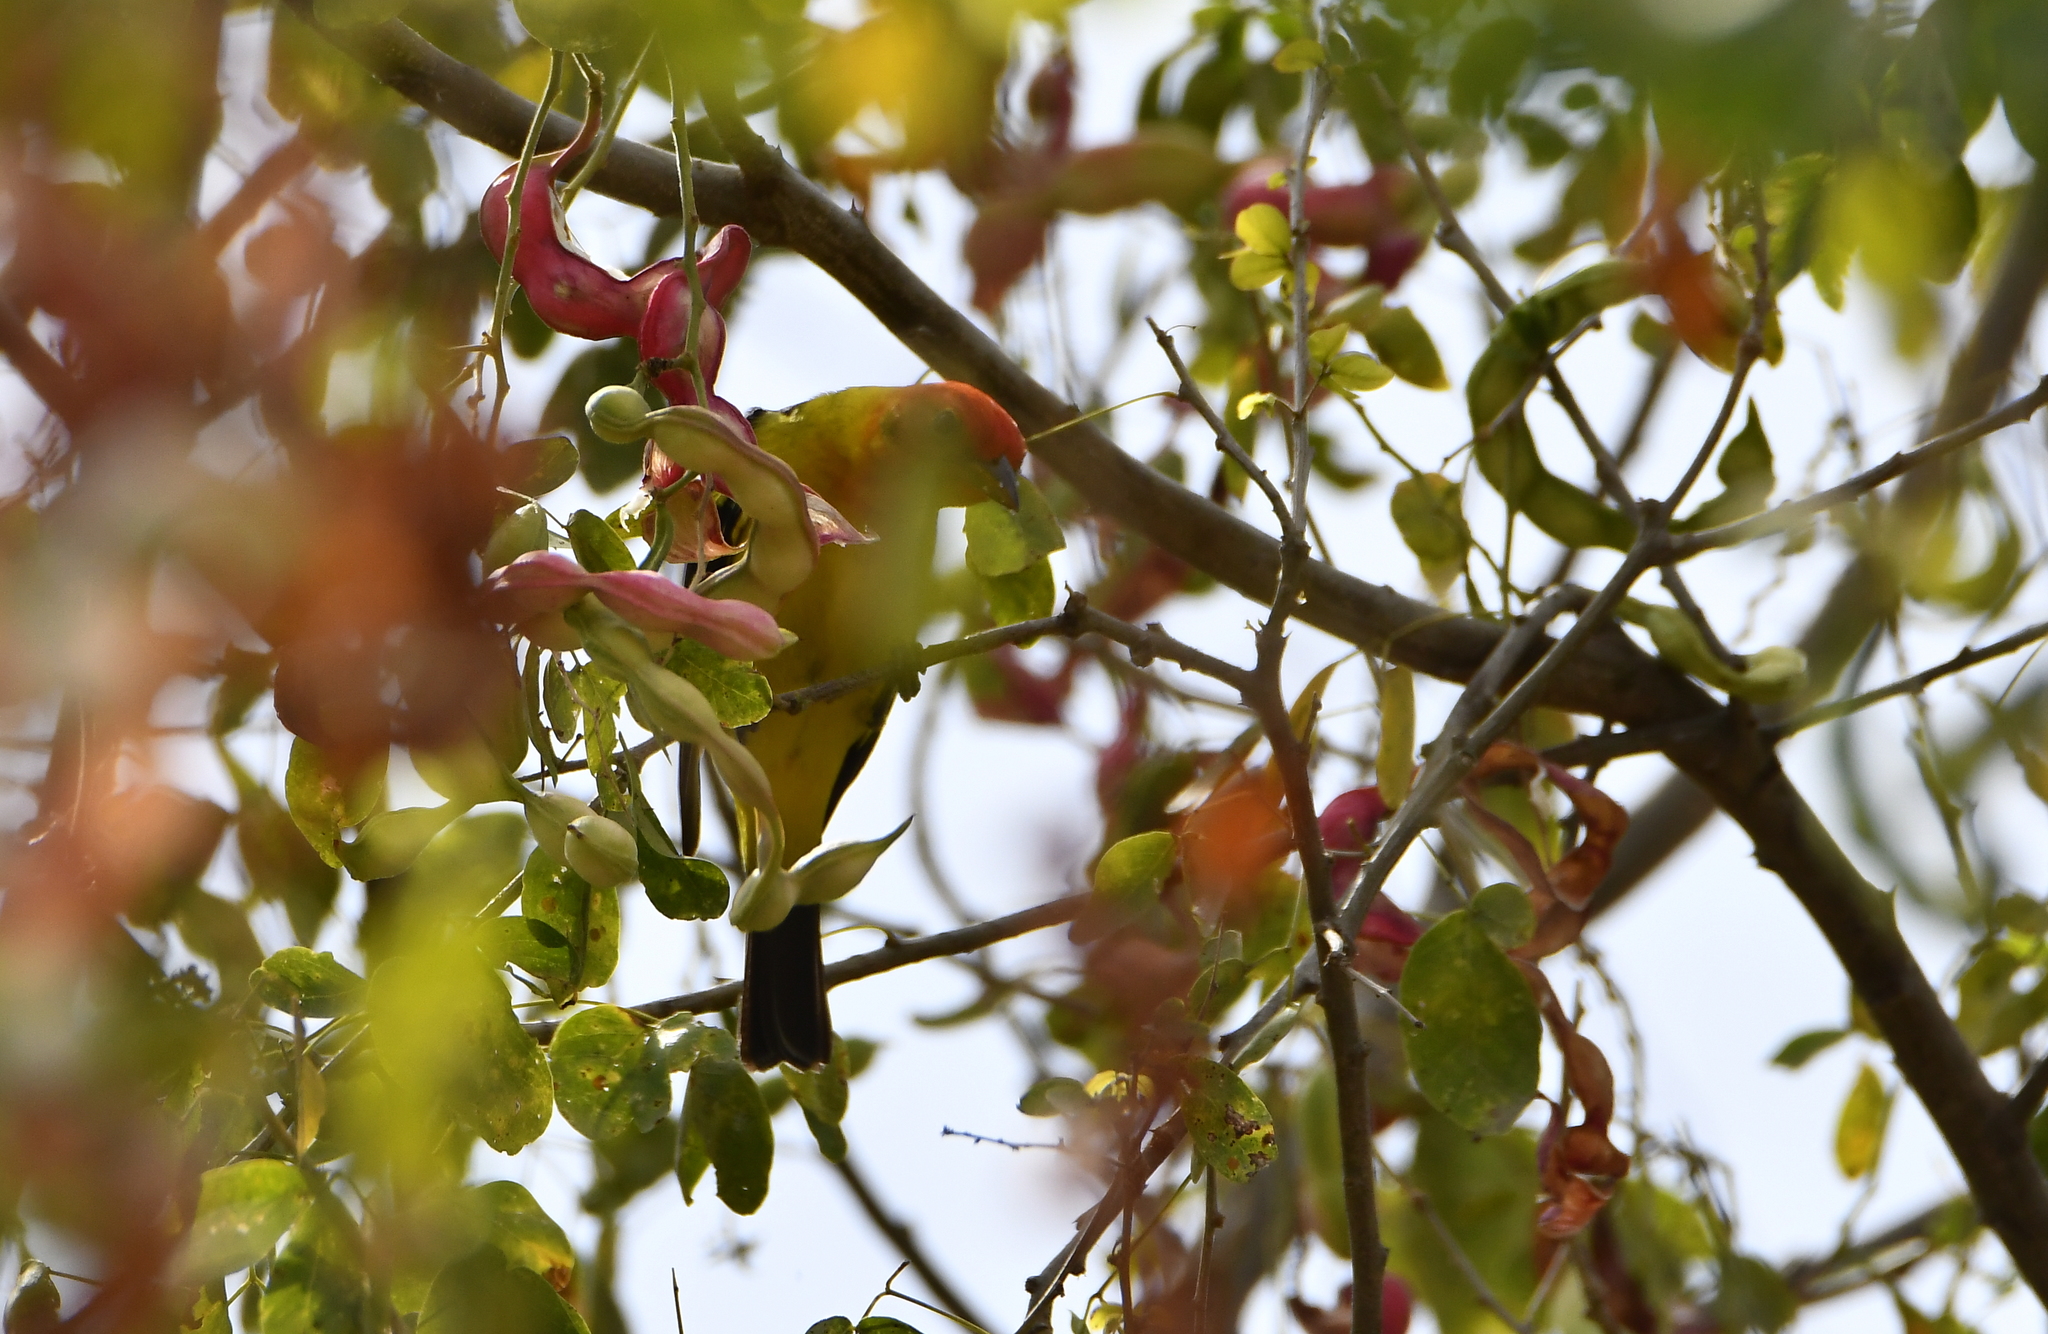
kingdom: Animalia
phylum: Chordata
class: Aves
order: Passeriformes
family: Cardinalidae
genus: Piranga
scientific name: Piranga ludoviciana
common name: Western tanager
